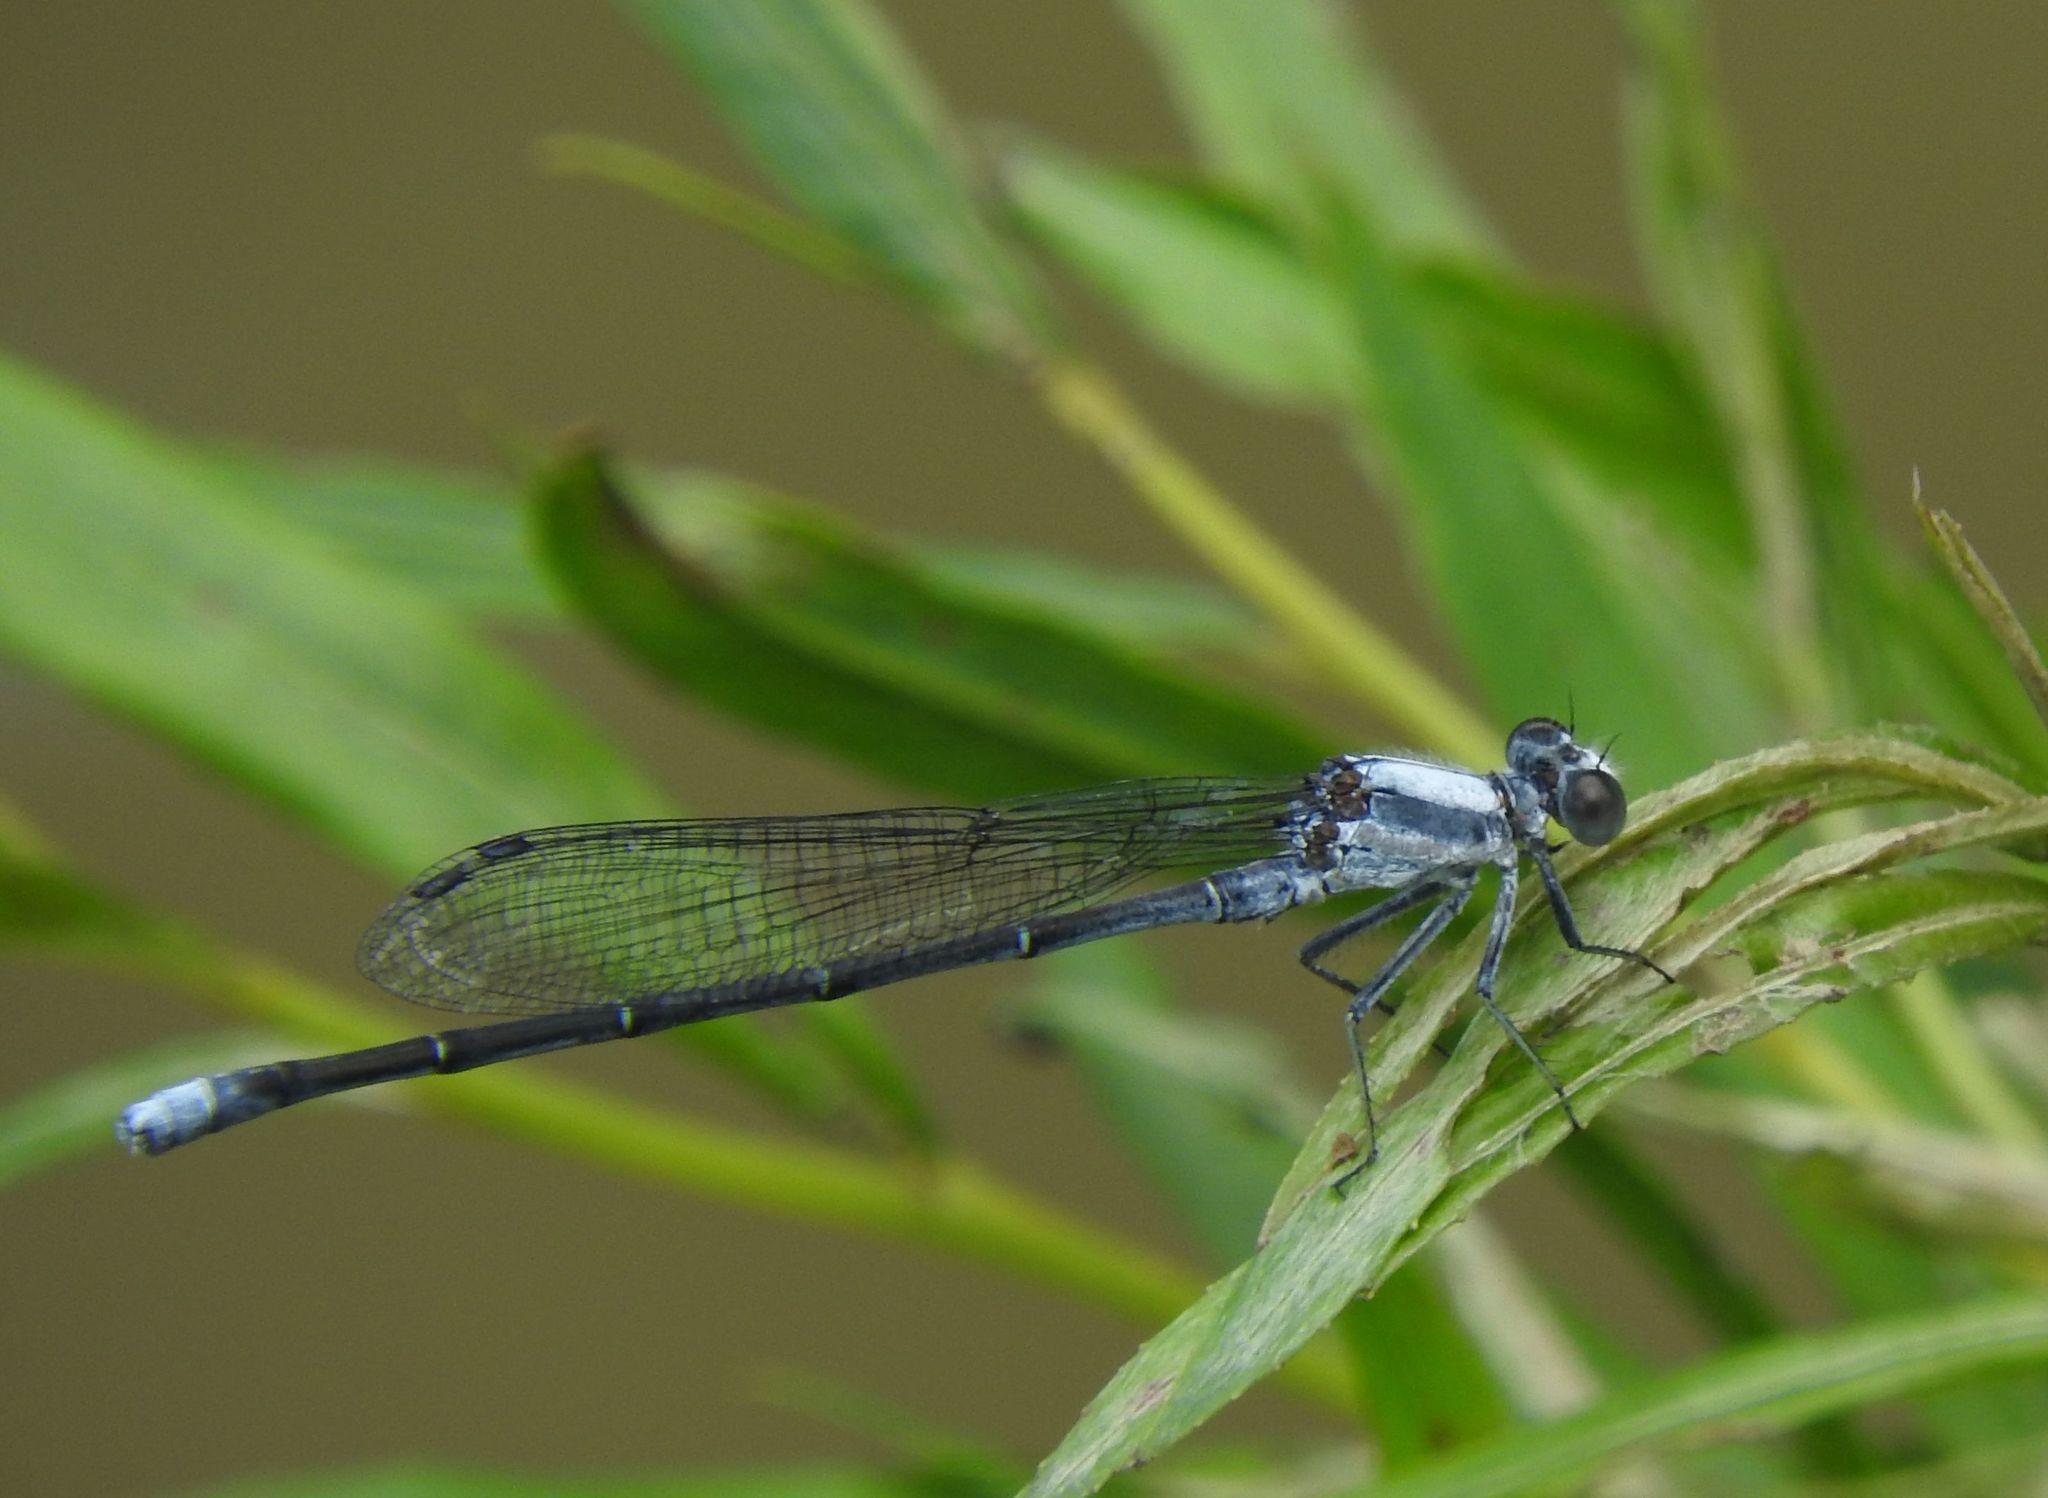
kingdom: Animalia
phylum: Arthropoda
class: Insecta
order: Odonata
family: Coenagrionidae
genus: Argia
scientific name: Argia moesta
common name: Powdered dancer
